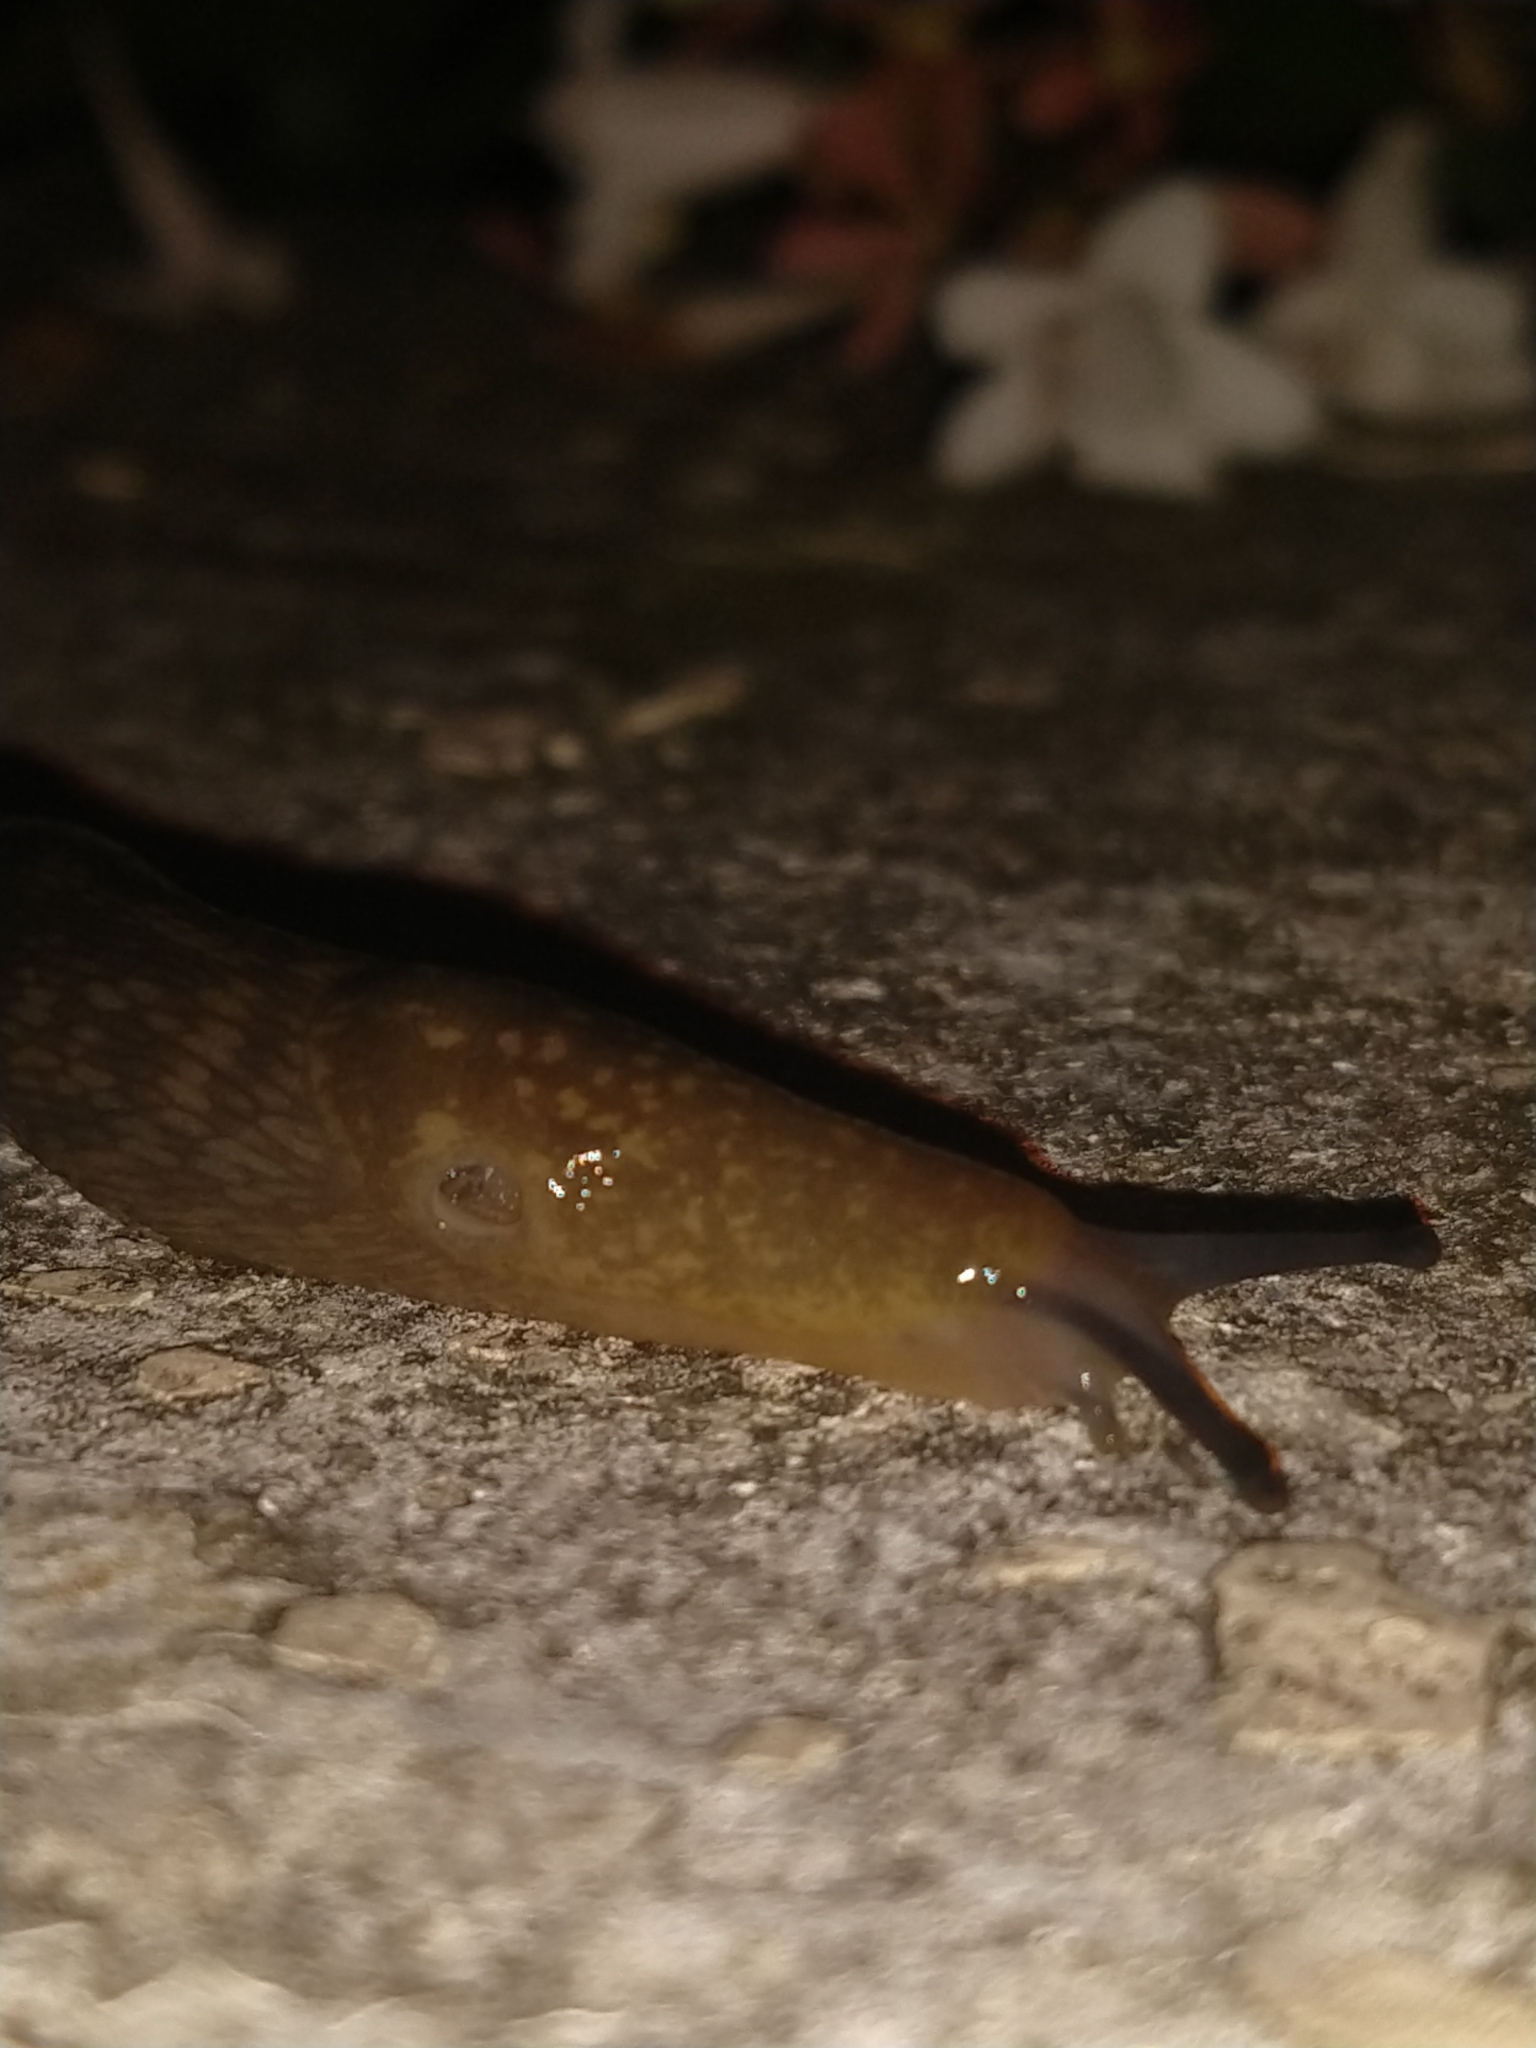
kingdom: Animalia
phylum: Mollusca
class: Gastropoda
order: Stylommatophora
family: Limacidae
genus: Limacus
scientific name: Limacus flavus
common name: Yellow gardenslug
